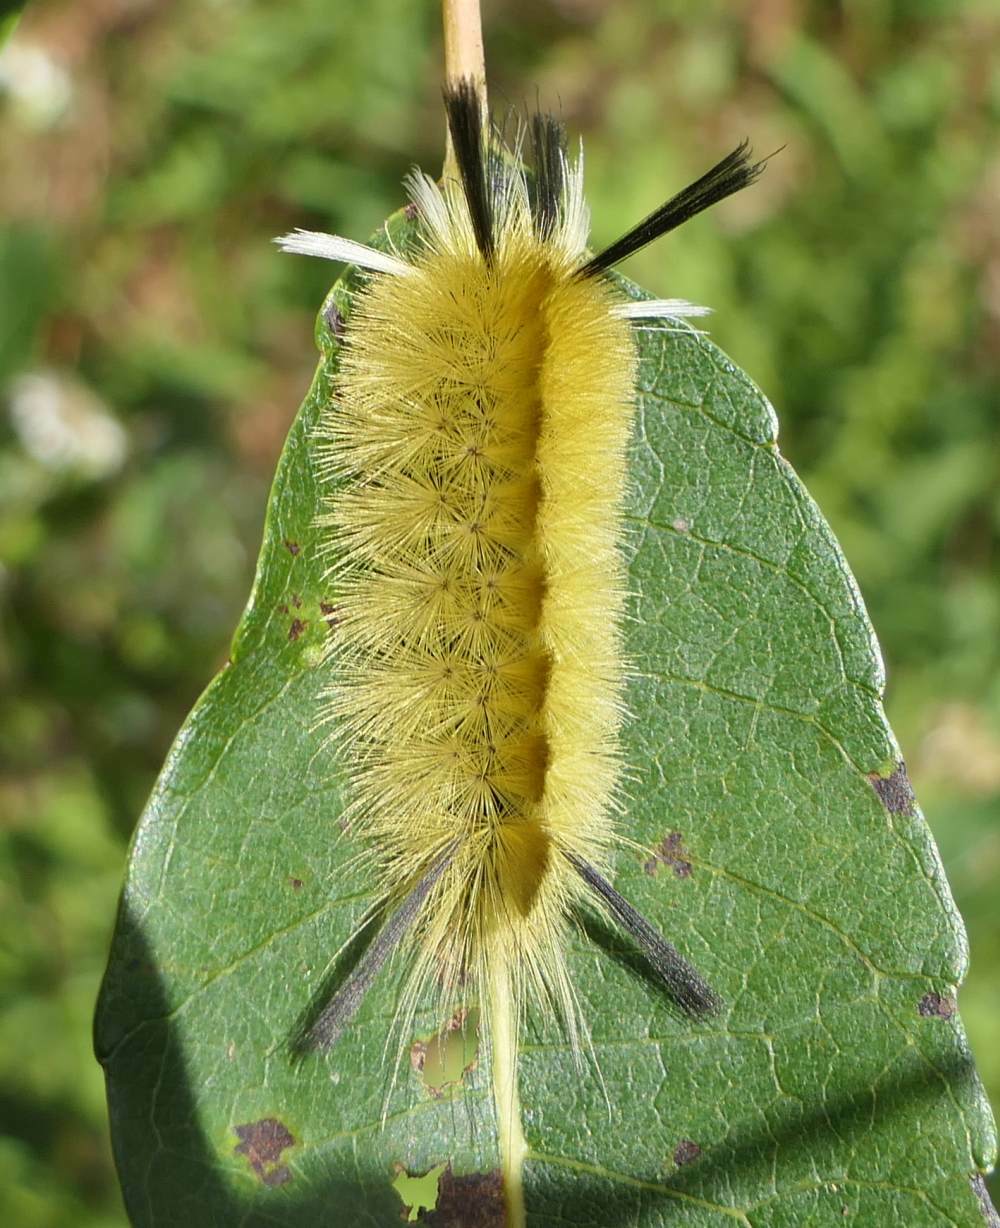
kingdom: Animalia
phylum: Arthropoda
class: Insecta
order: Lepidoptera
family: Erebidae
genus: Halysidota
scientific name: Halysidota tessellaris
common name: Banded tussock moth
